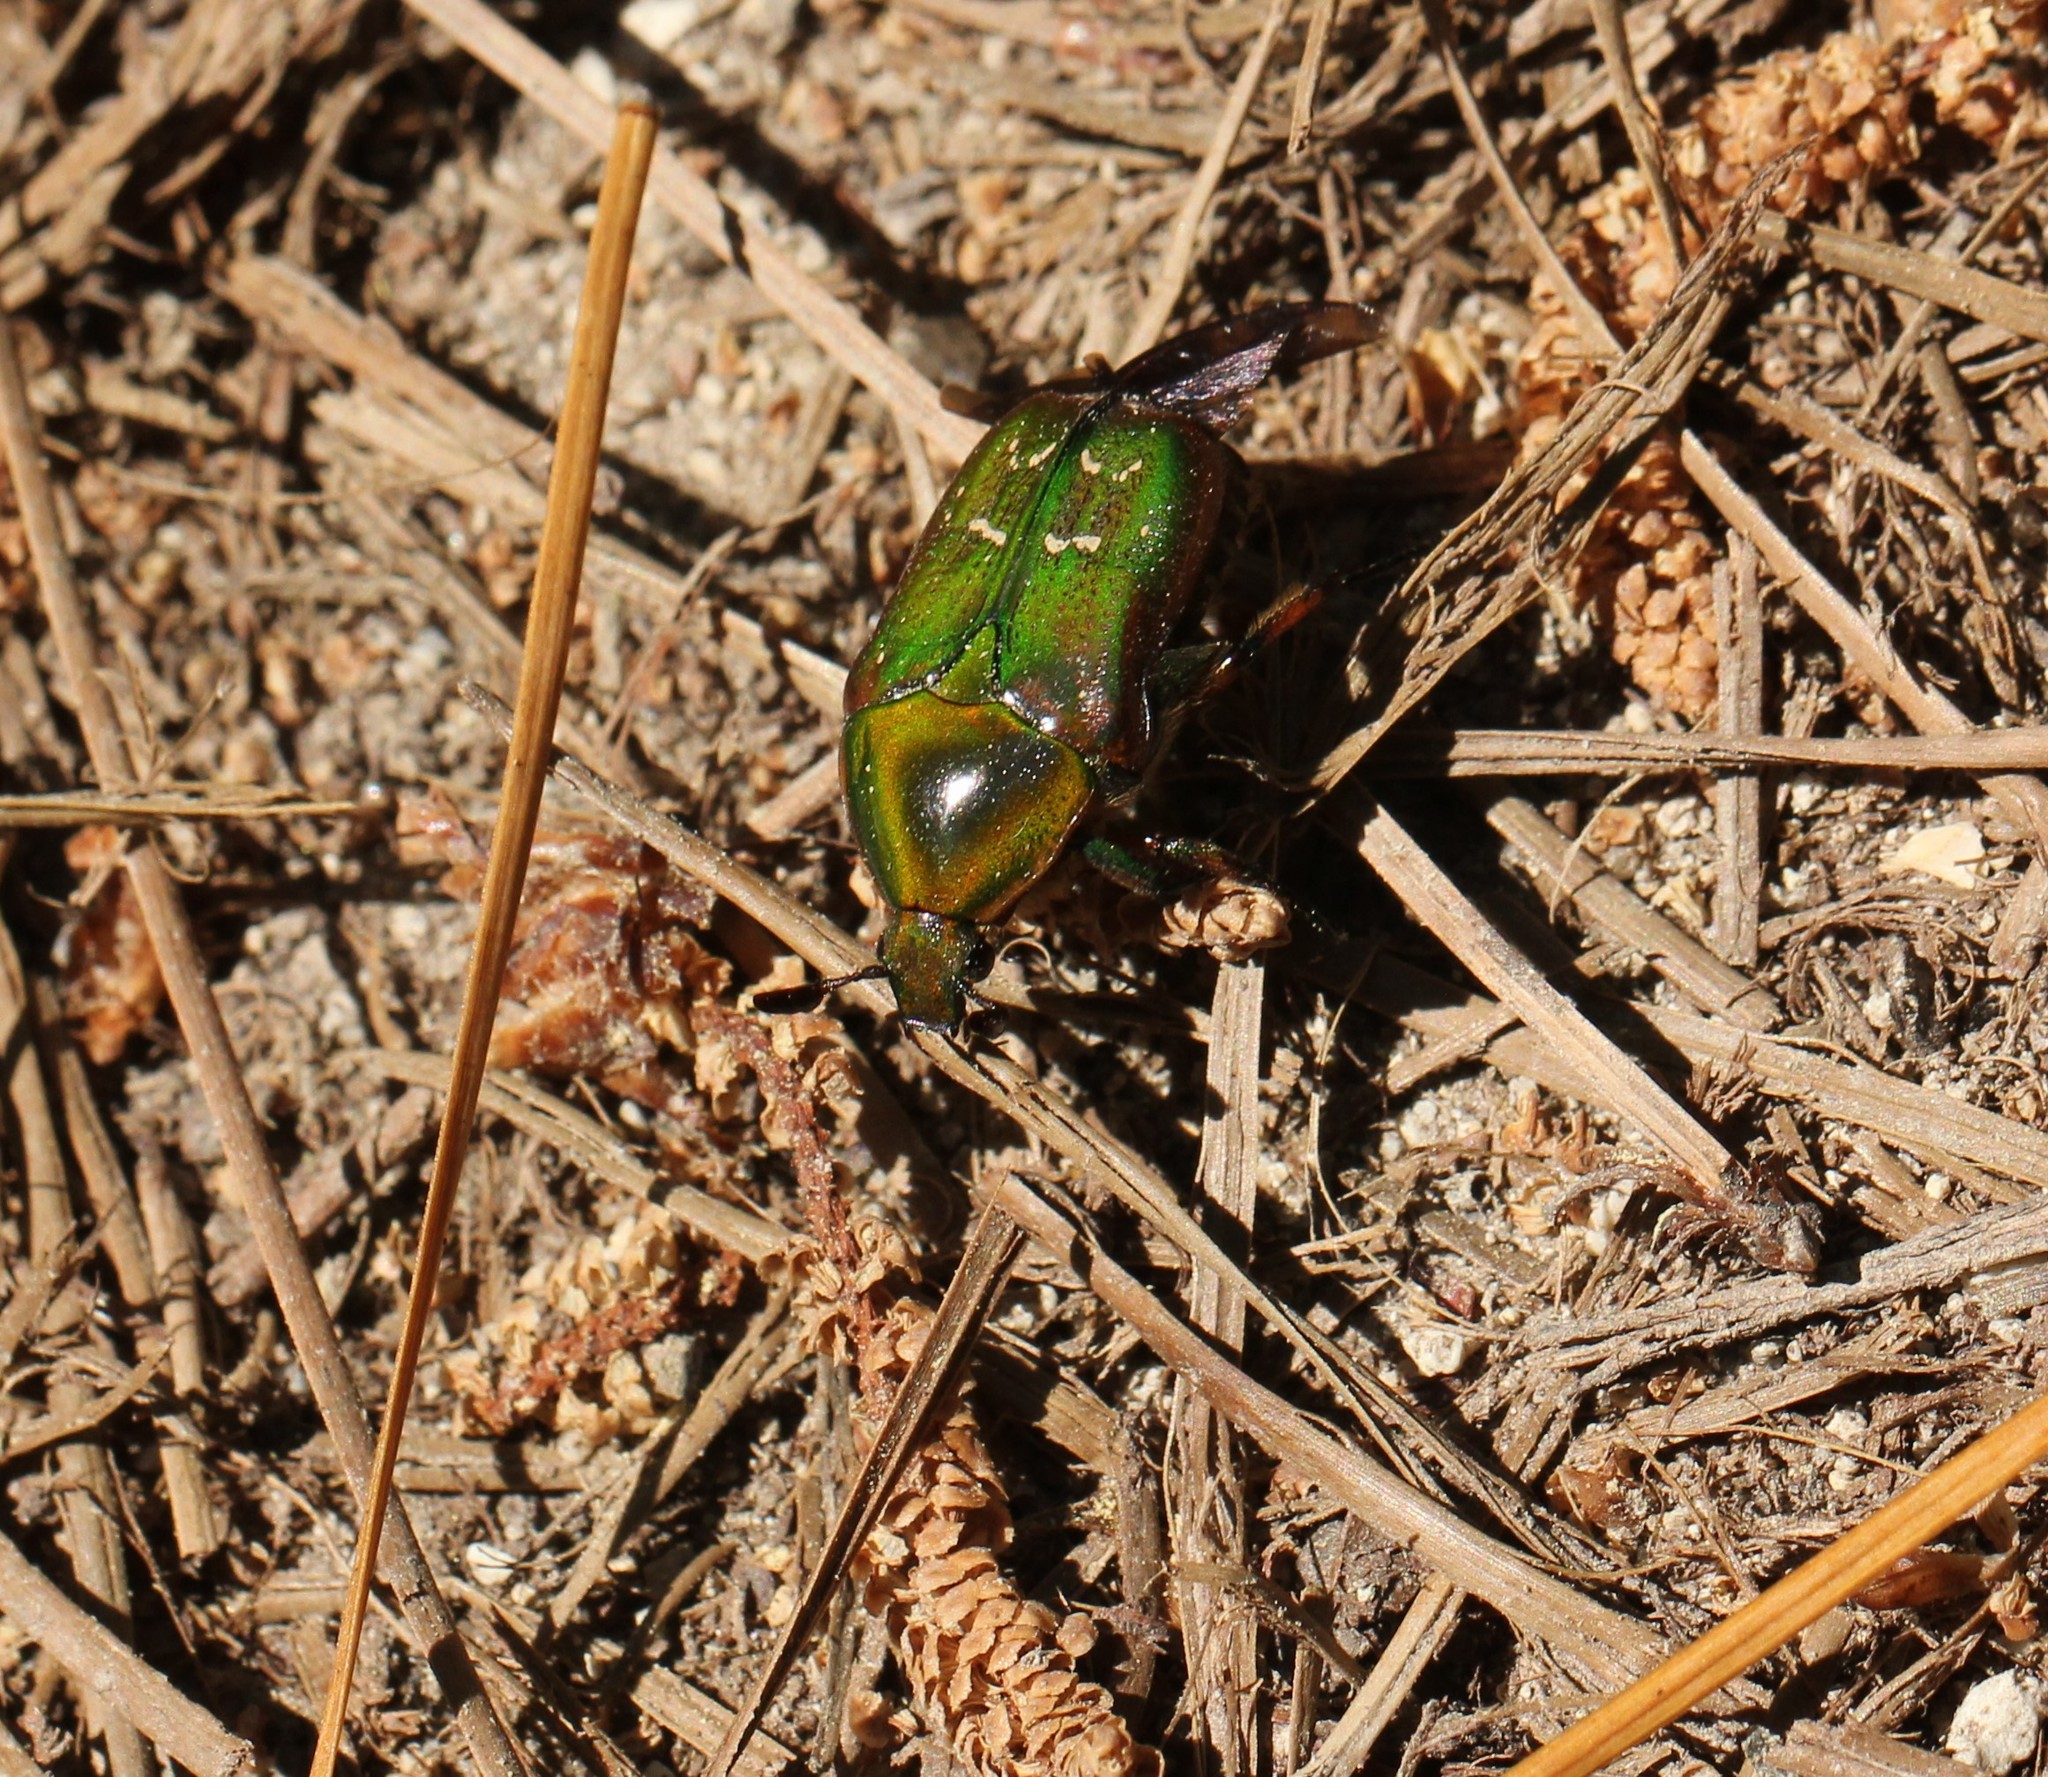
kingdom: Animalia
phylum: Arthropoda
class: Insecta
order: Coleoptera
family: Scarabaeidae
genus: Euphoria
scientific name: Euphoria fulgida
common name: Emerald euphoria
